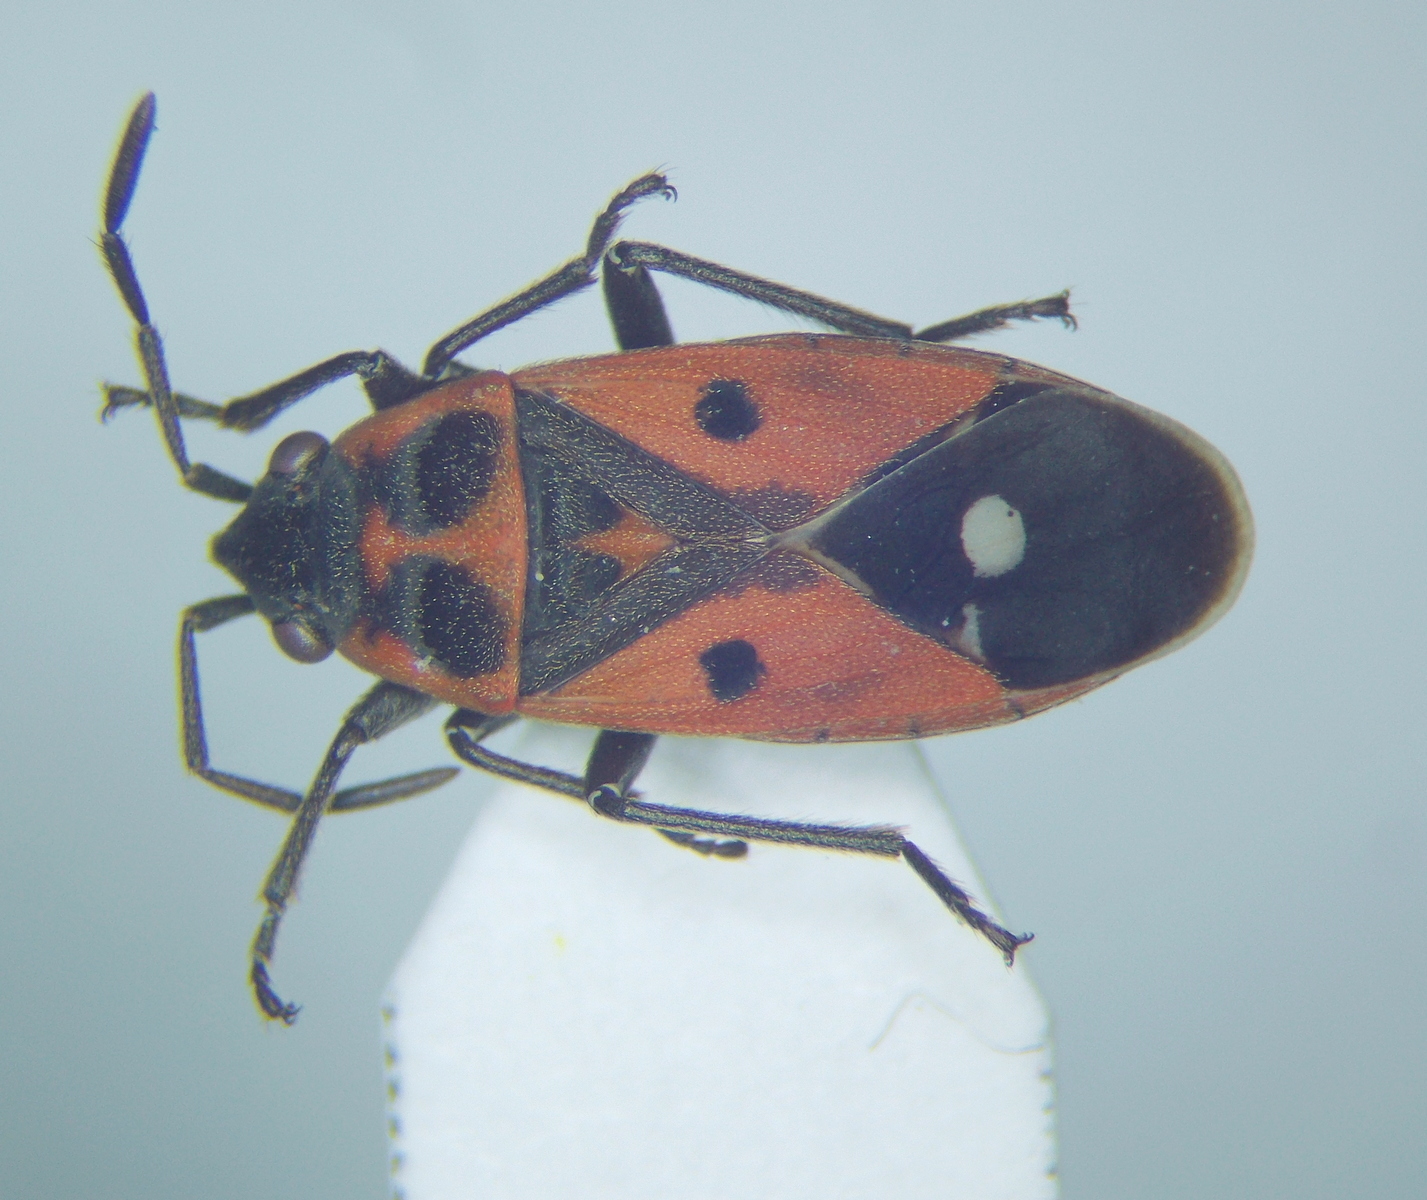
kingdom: Animalia
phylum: Arthropoda
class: Insecta
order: Hemiptera
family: Lygaeidae
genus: Melanocoryphus
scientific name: Melanocoryphus tristrami
